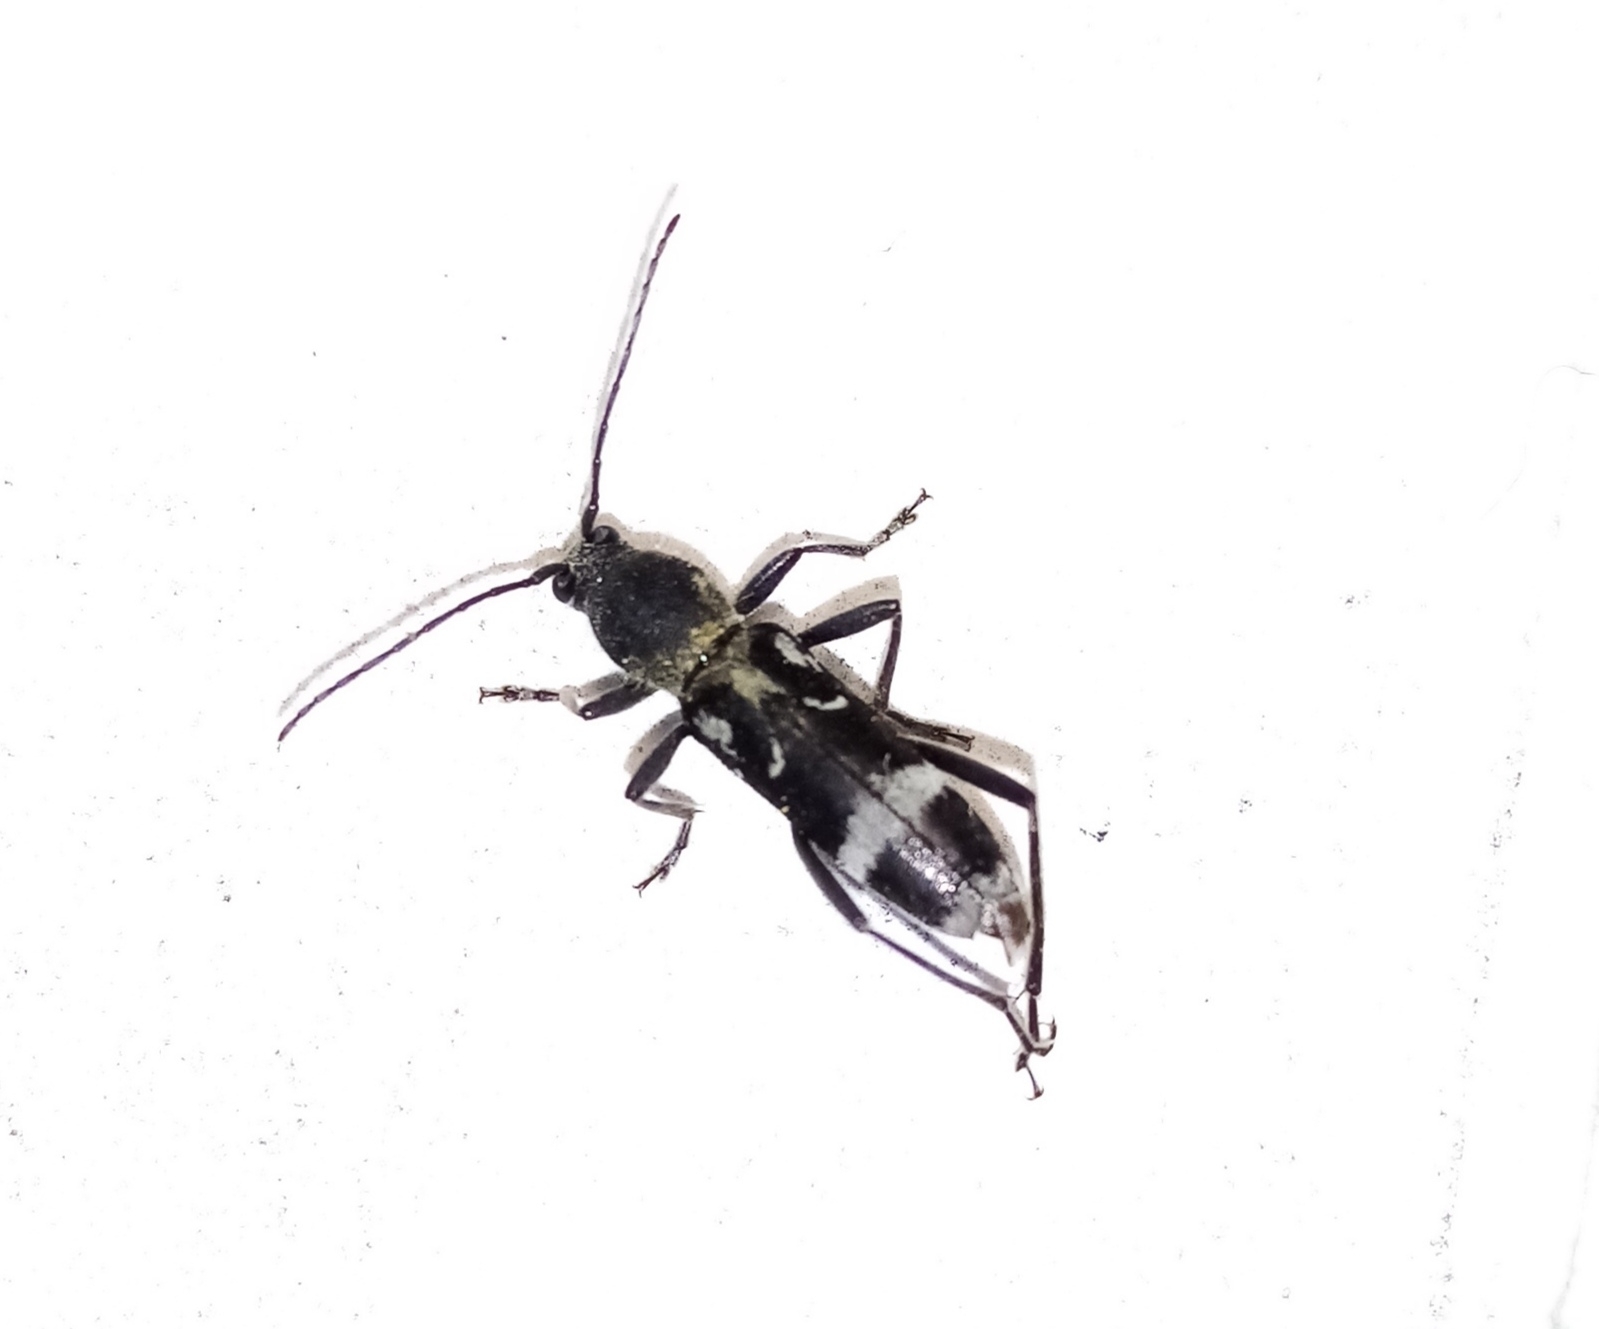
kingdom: Animalia
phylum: Arthropoda
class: Insecta
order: Coleoptera
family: Cerambycidae
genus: Chlorophorus
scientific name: Chlorophorus figuratus
